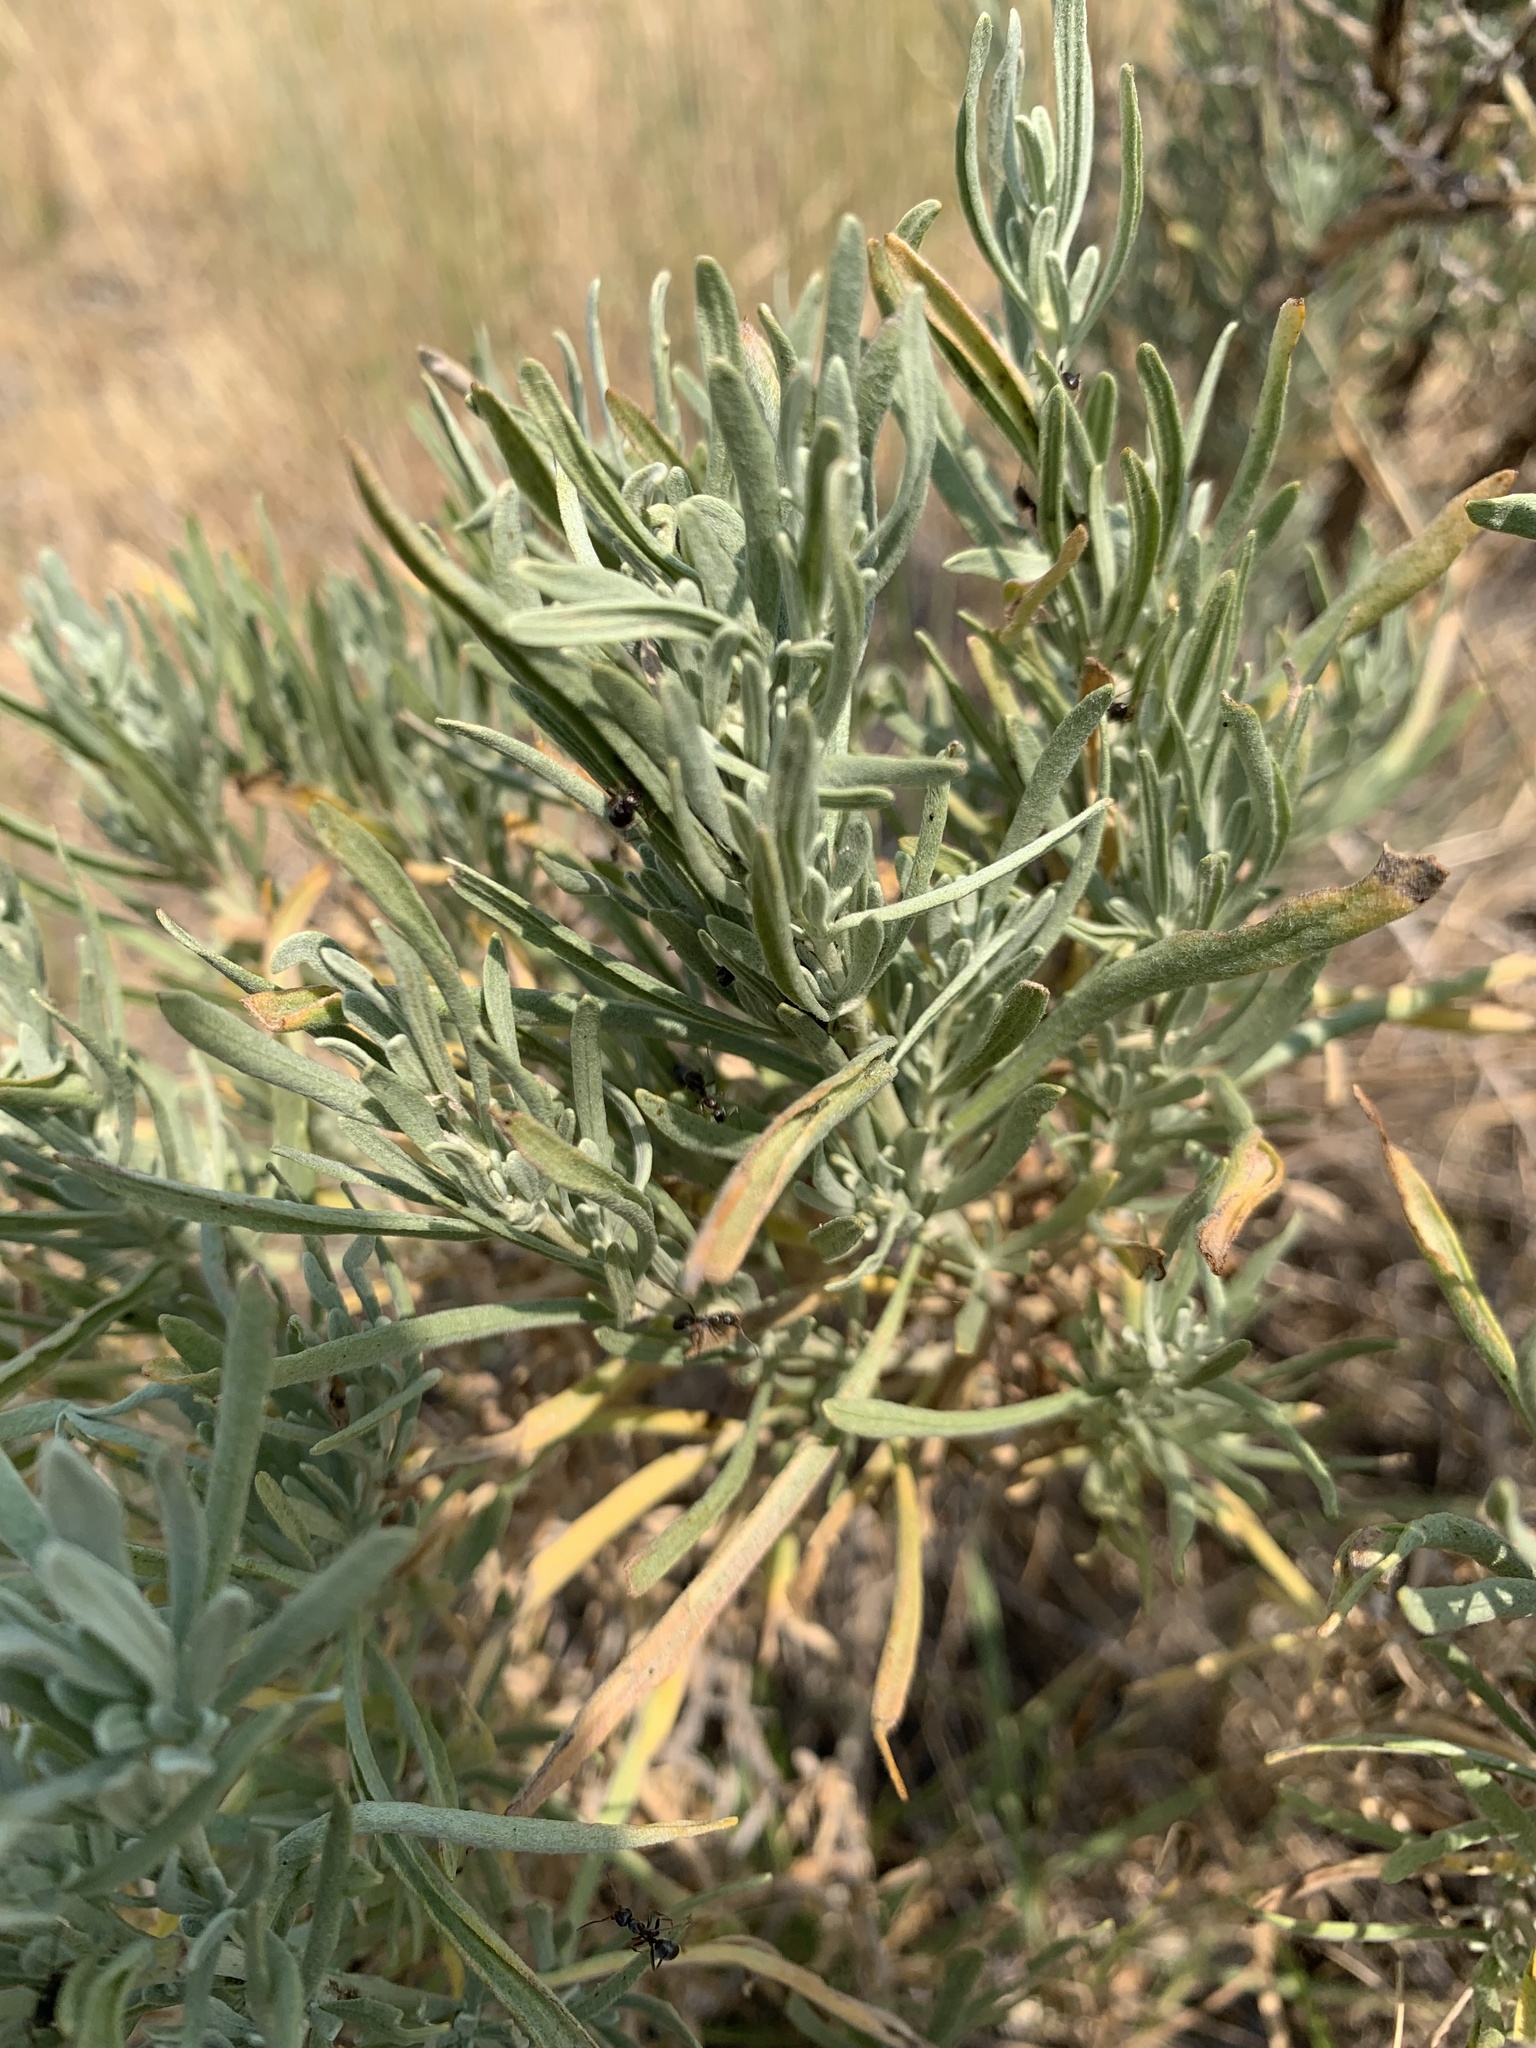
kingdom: Plantae
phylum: Tracheophyta
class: Magnoliopsida
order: Asterales
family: Asteraceae
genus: Artemisia
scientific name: Artemisia cana
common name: Silver sagebrush
